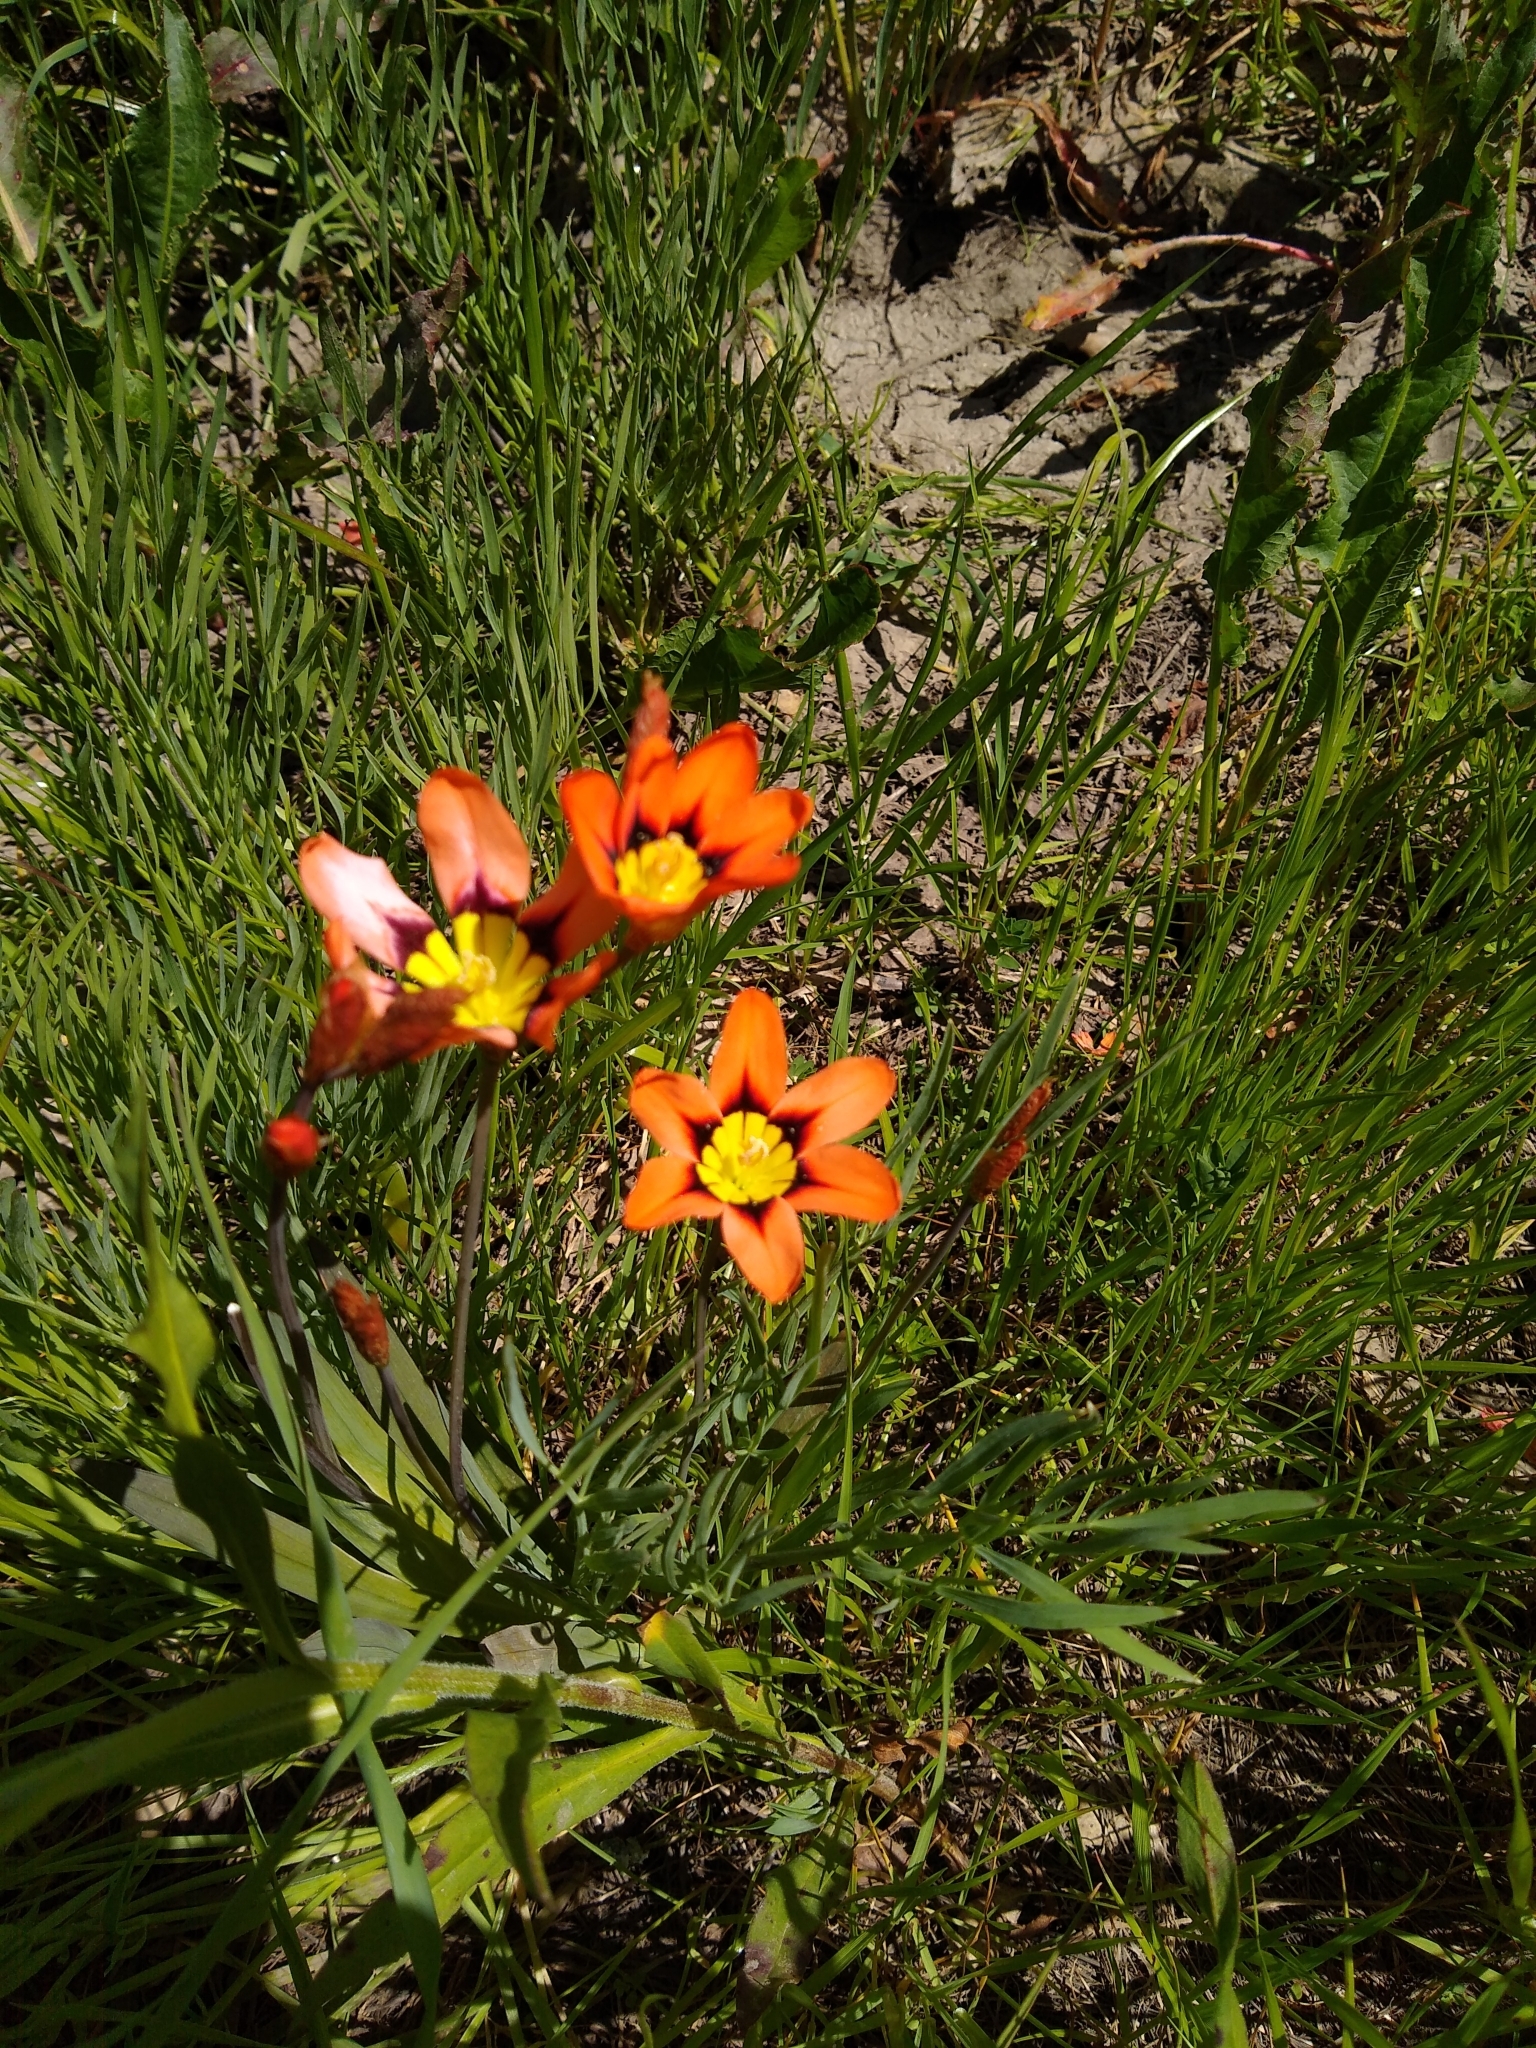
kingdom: Plantae
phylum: Tracheophyta
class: Liliopsida
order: Asparagales
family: Iridaceae
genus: Sparaxis
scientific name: Sparaxis tricolor
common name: Wandflower
